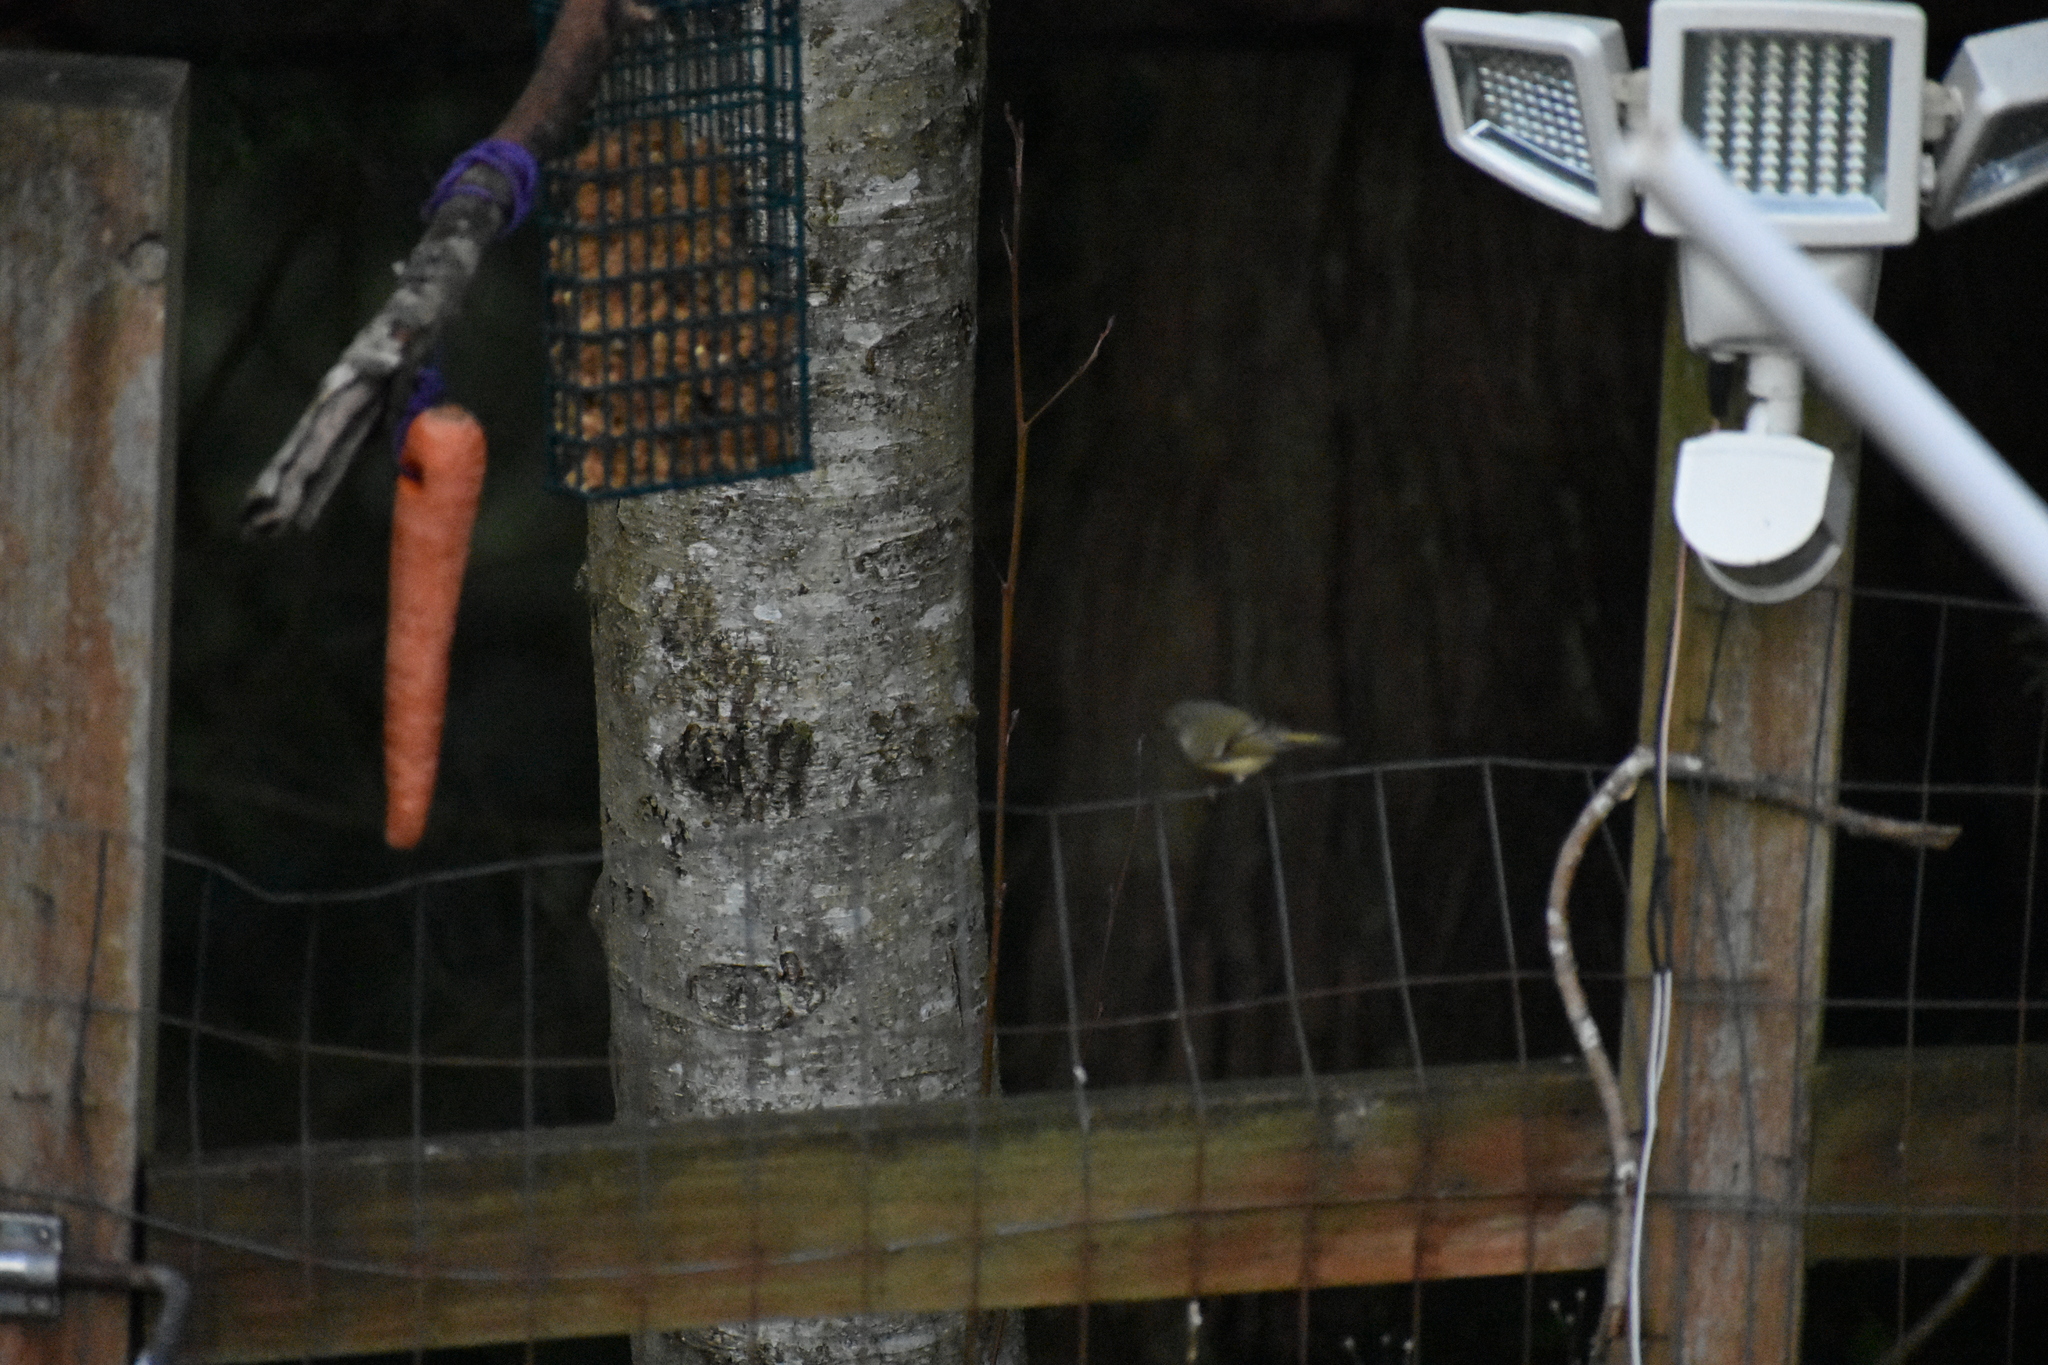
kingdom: Animalia
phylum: Chordata
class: Aves
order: Passeriformes
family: Regulidae
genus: Regulus
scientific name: Regulus calendula
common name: Ruby-crowned kinglet
